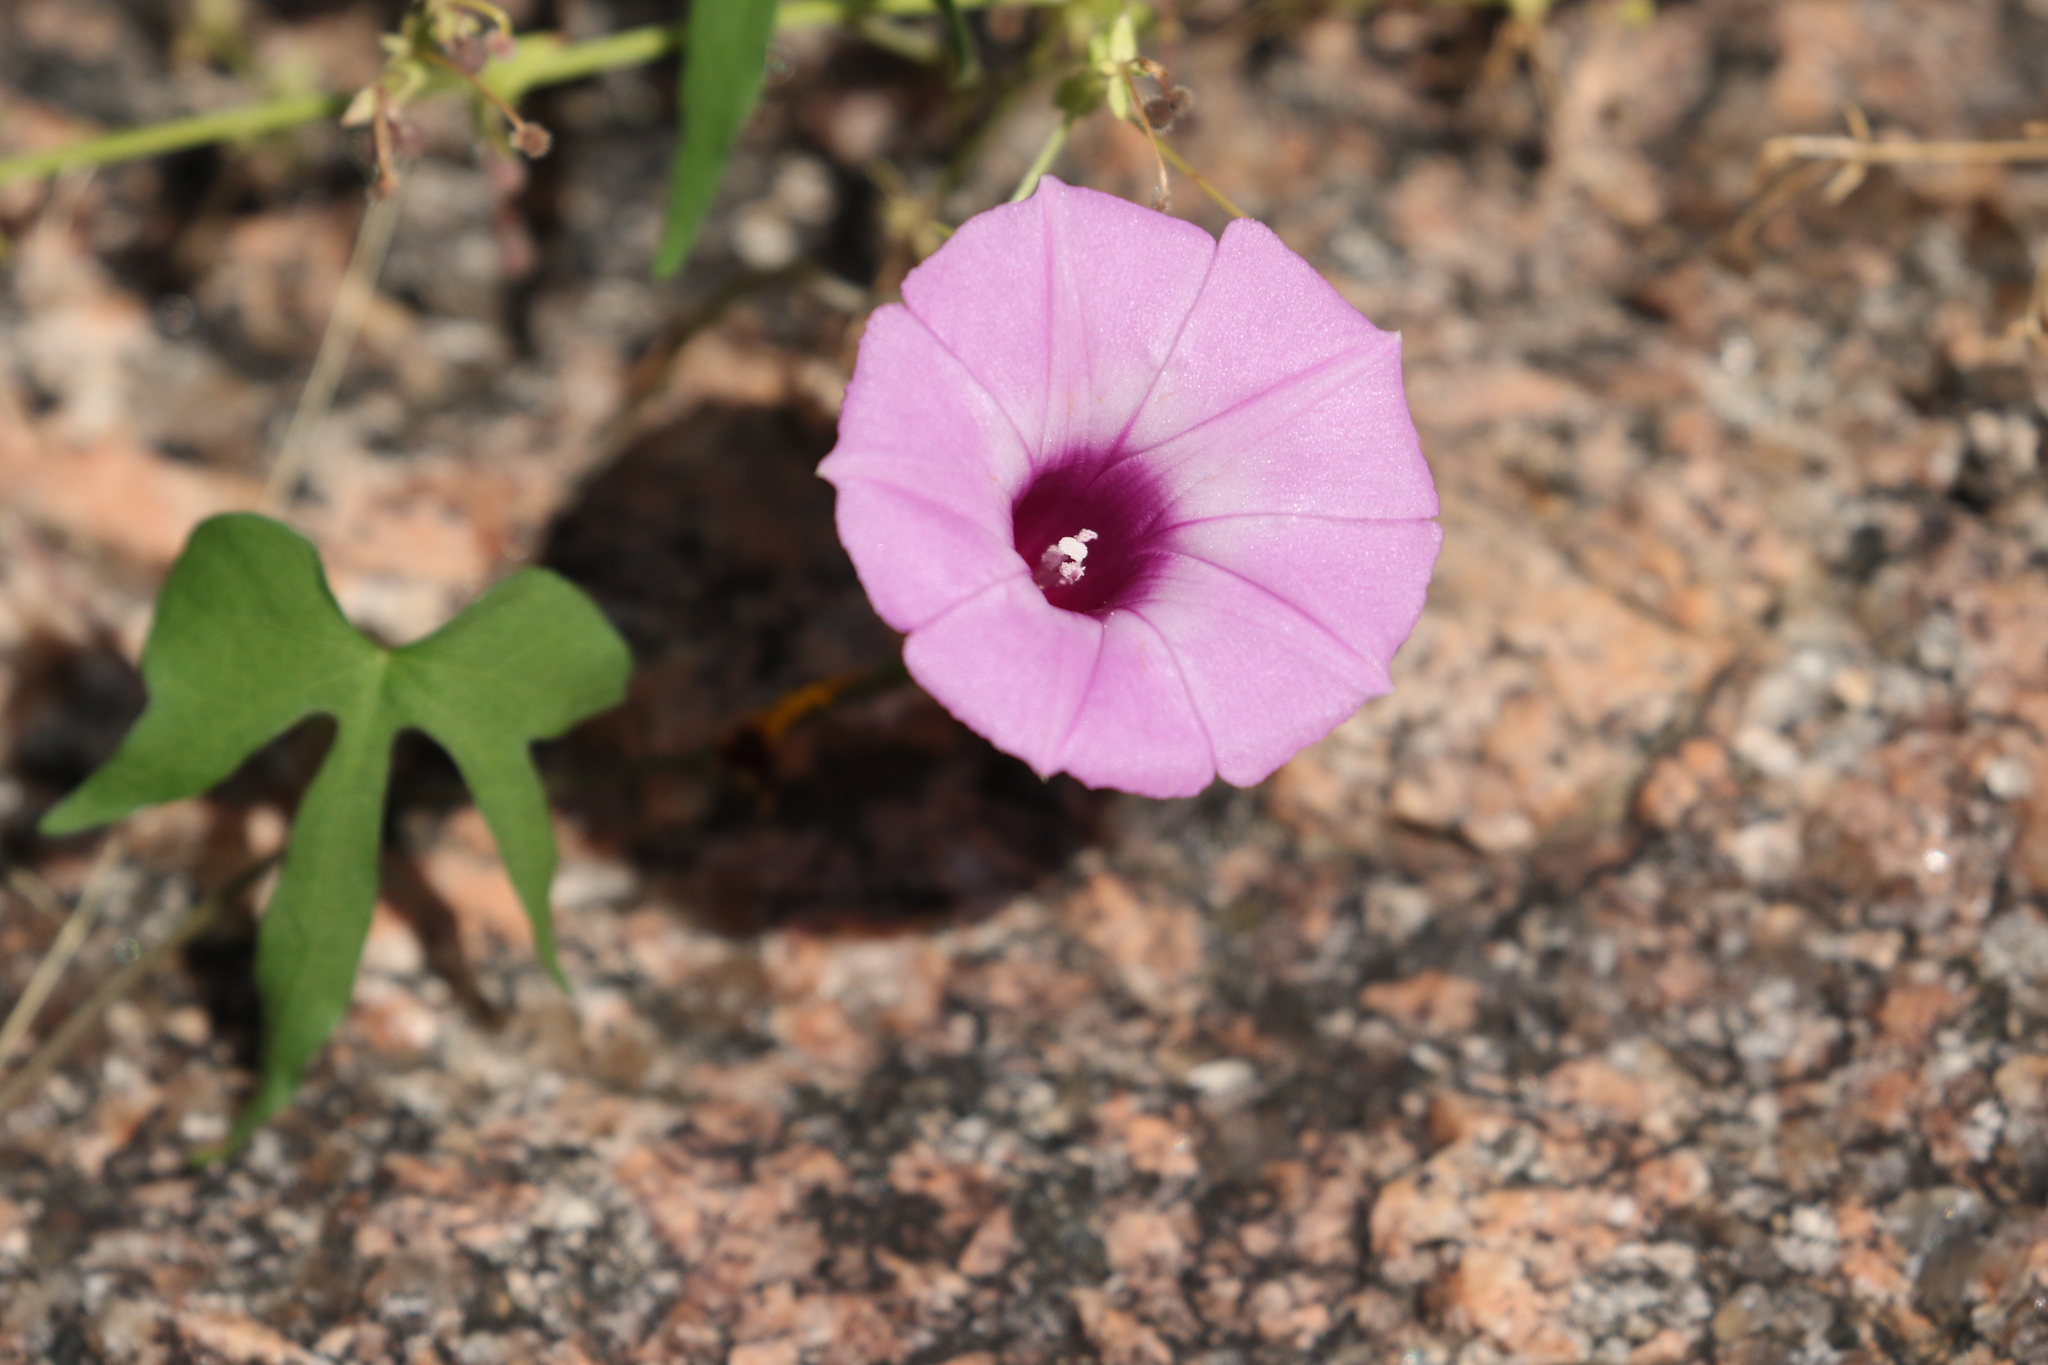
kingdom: Plantae
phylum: Tracheophyta
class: Magnoliopsida
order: Solanales
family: Convolvulaceae
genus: Ipomoea
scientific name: Ipomoea cordatotriloba
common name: Cotton morning glory
